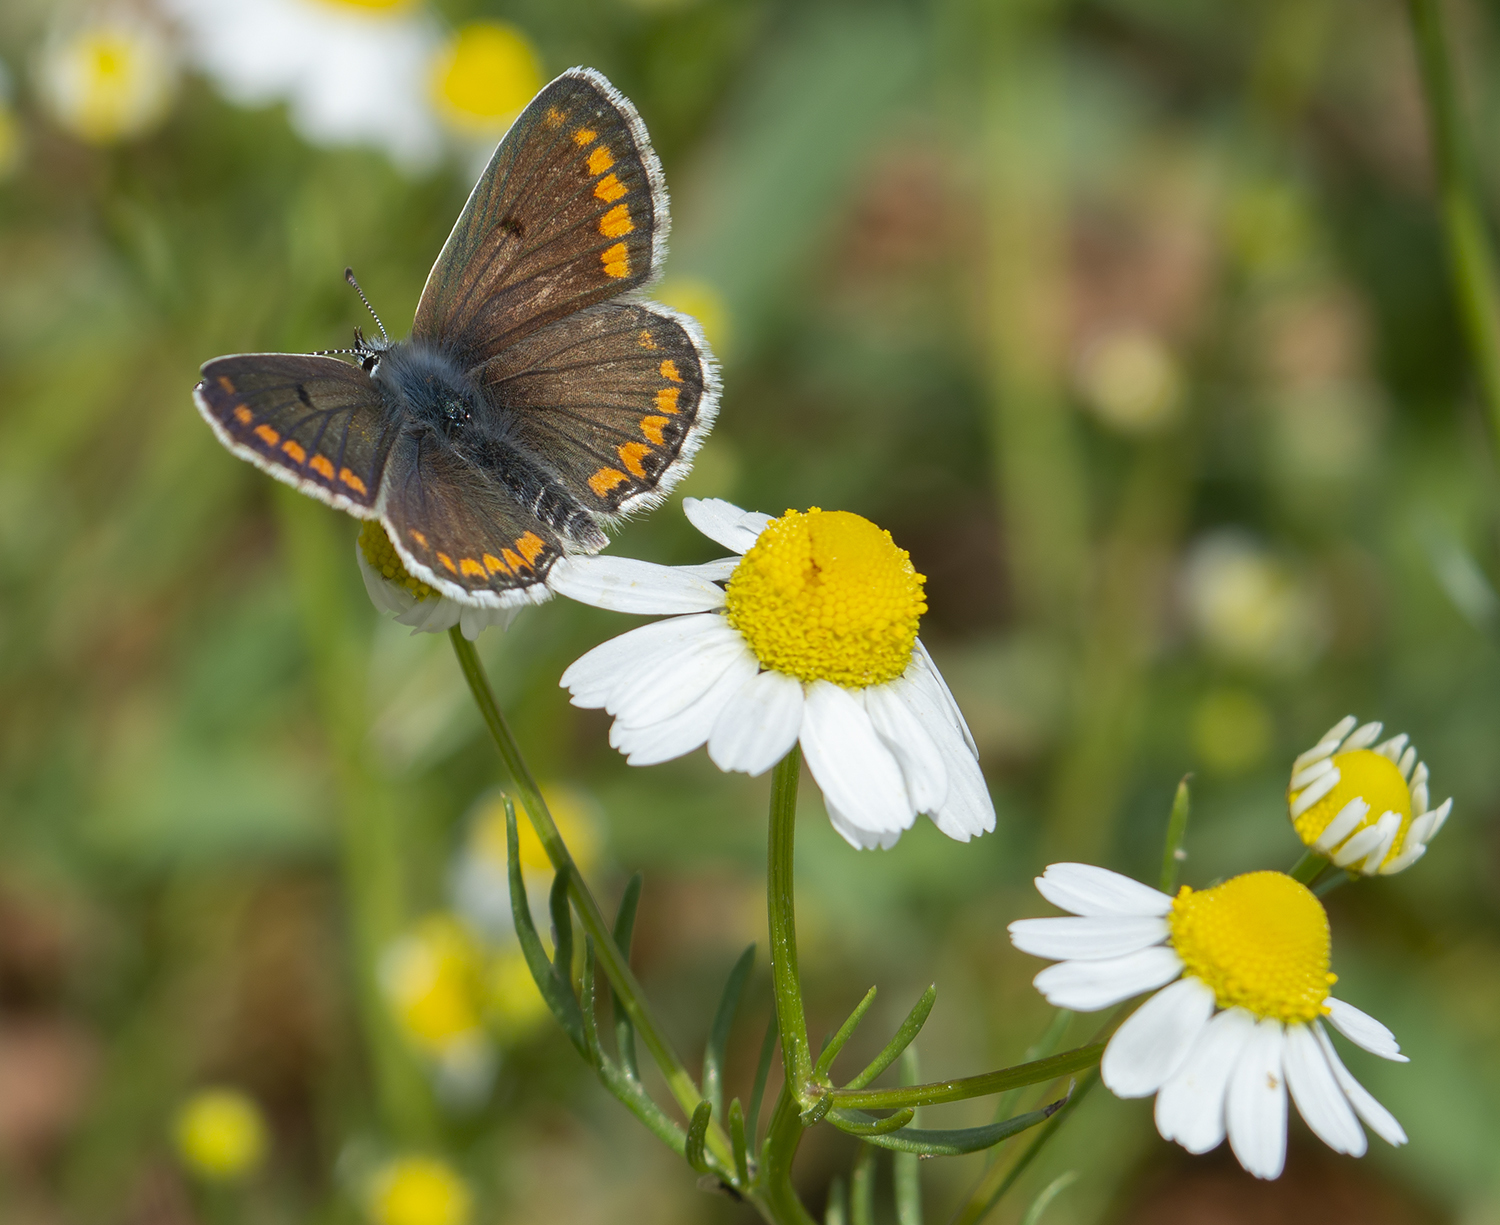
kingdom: Animalia
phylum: Arthropoda
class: Insecta
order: Lepidoptera
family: Lycaenidae
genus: Aricia
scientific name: Aricia agestis
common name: Brown argus
